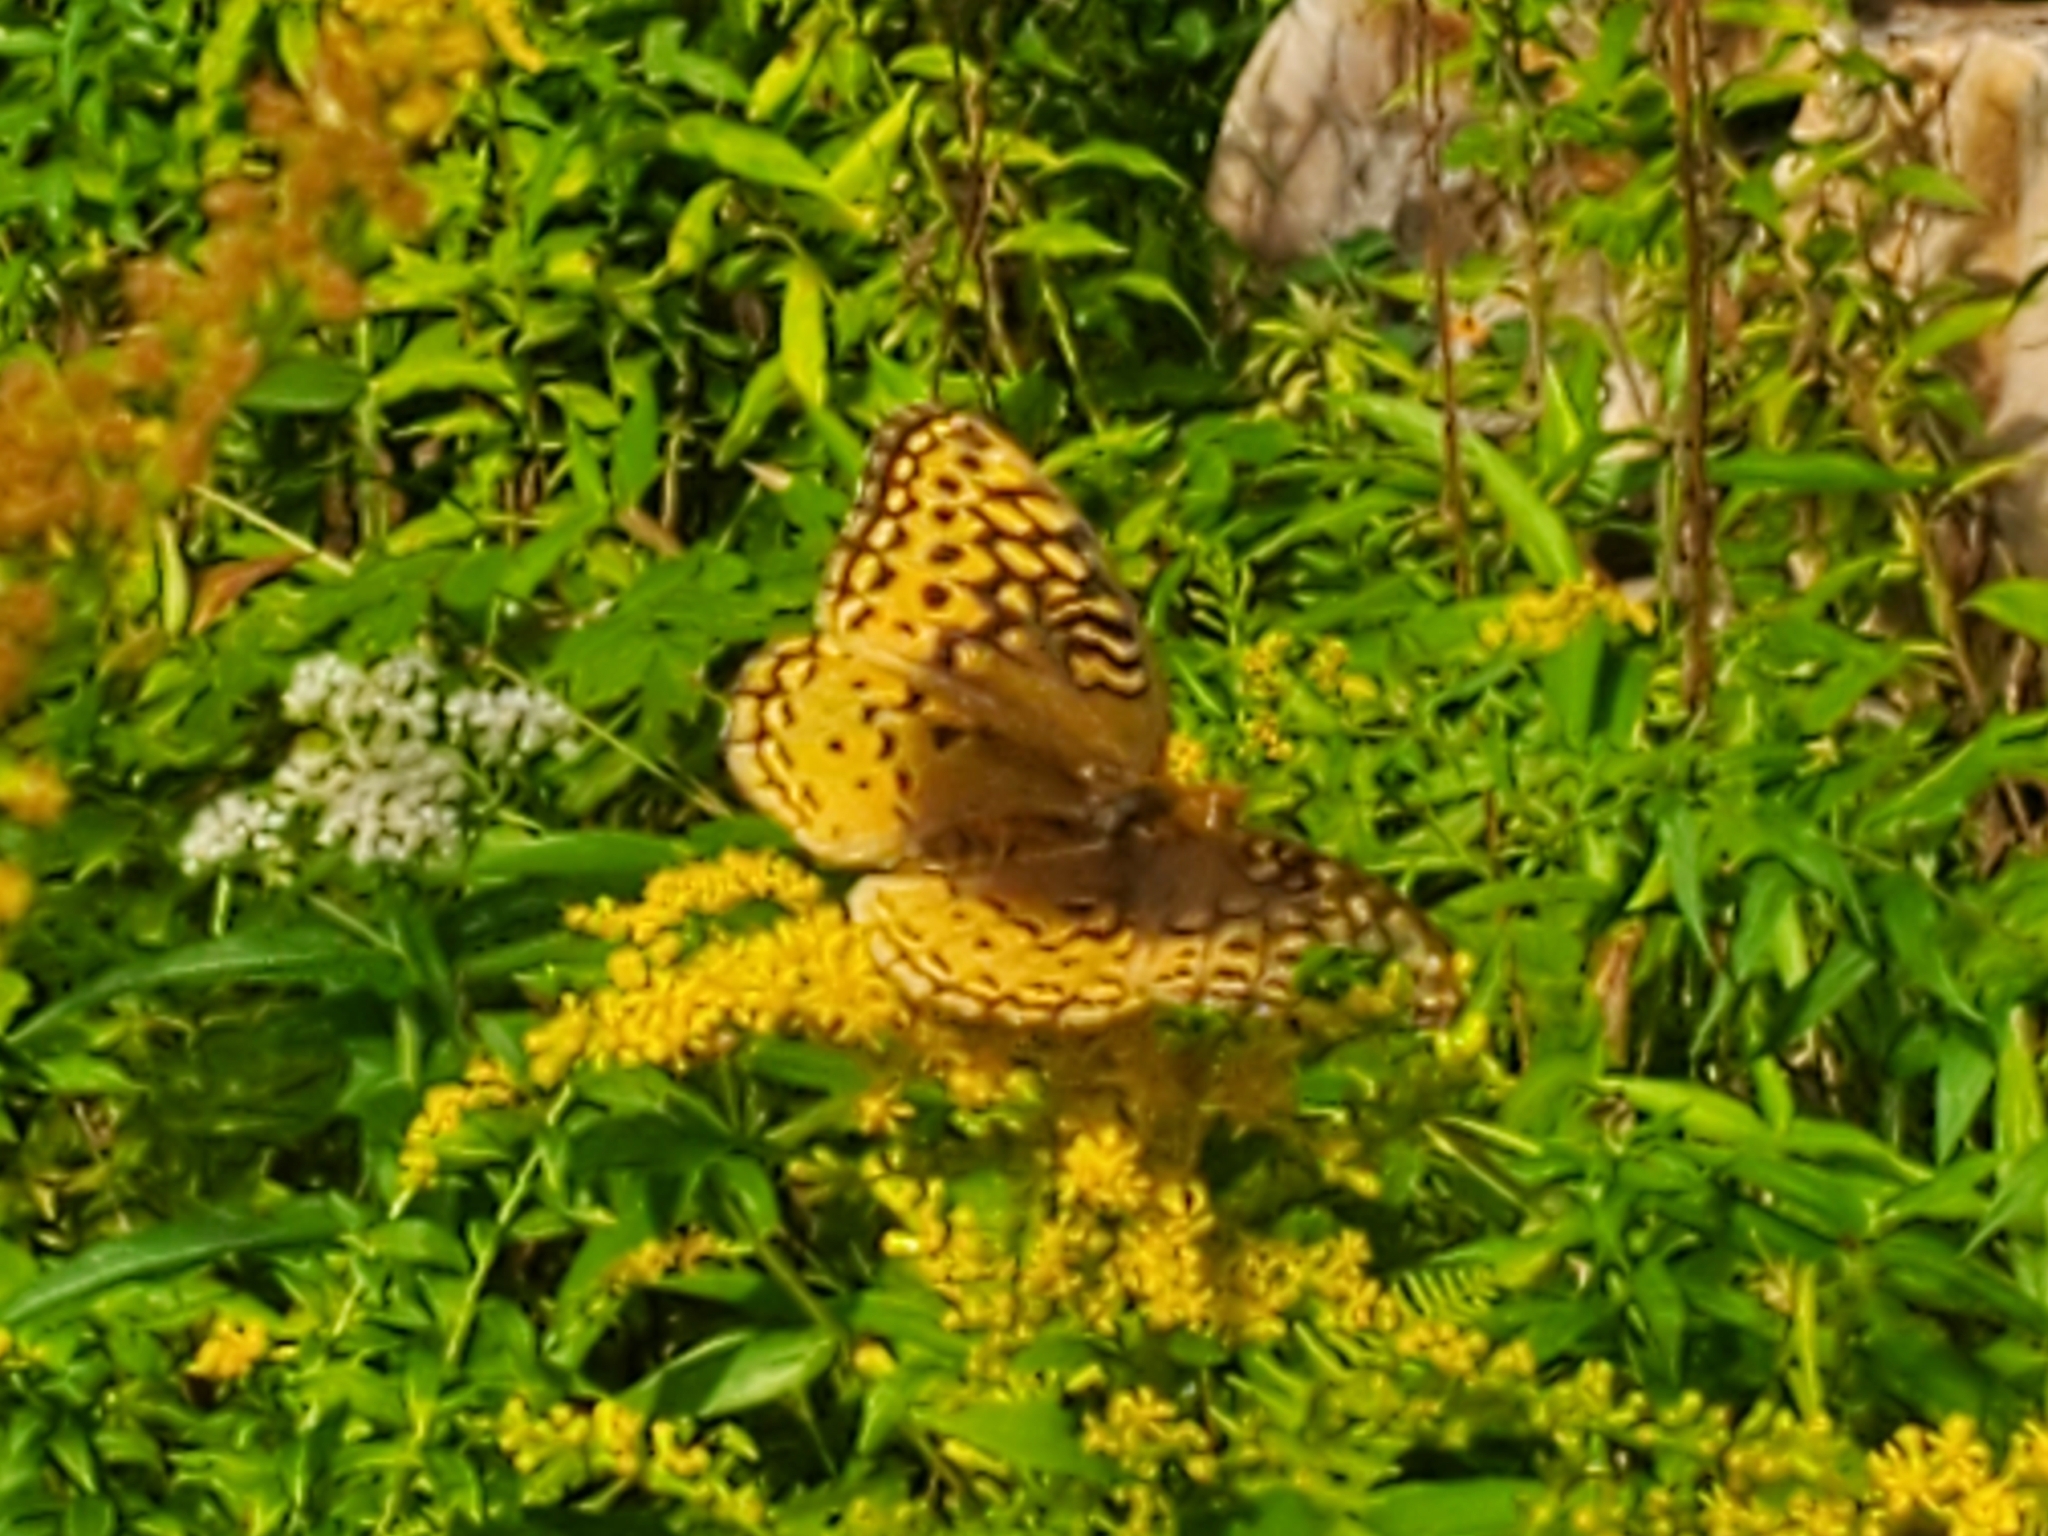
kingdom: Animalia
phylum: Arthropoda
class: Insecta
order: Lepidoptera
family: Nymphalidae
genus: Speyeria
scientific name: Speyeria cybele
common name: Great spangled fritillary
